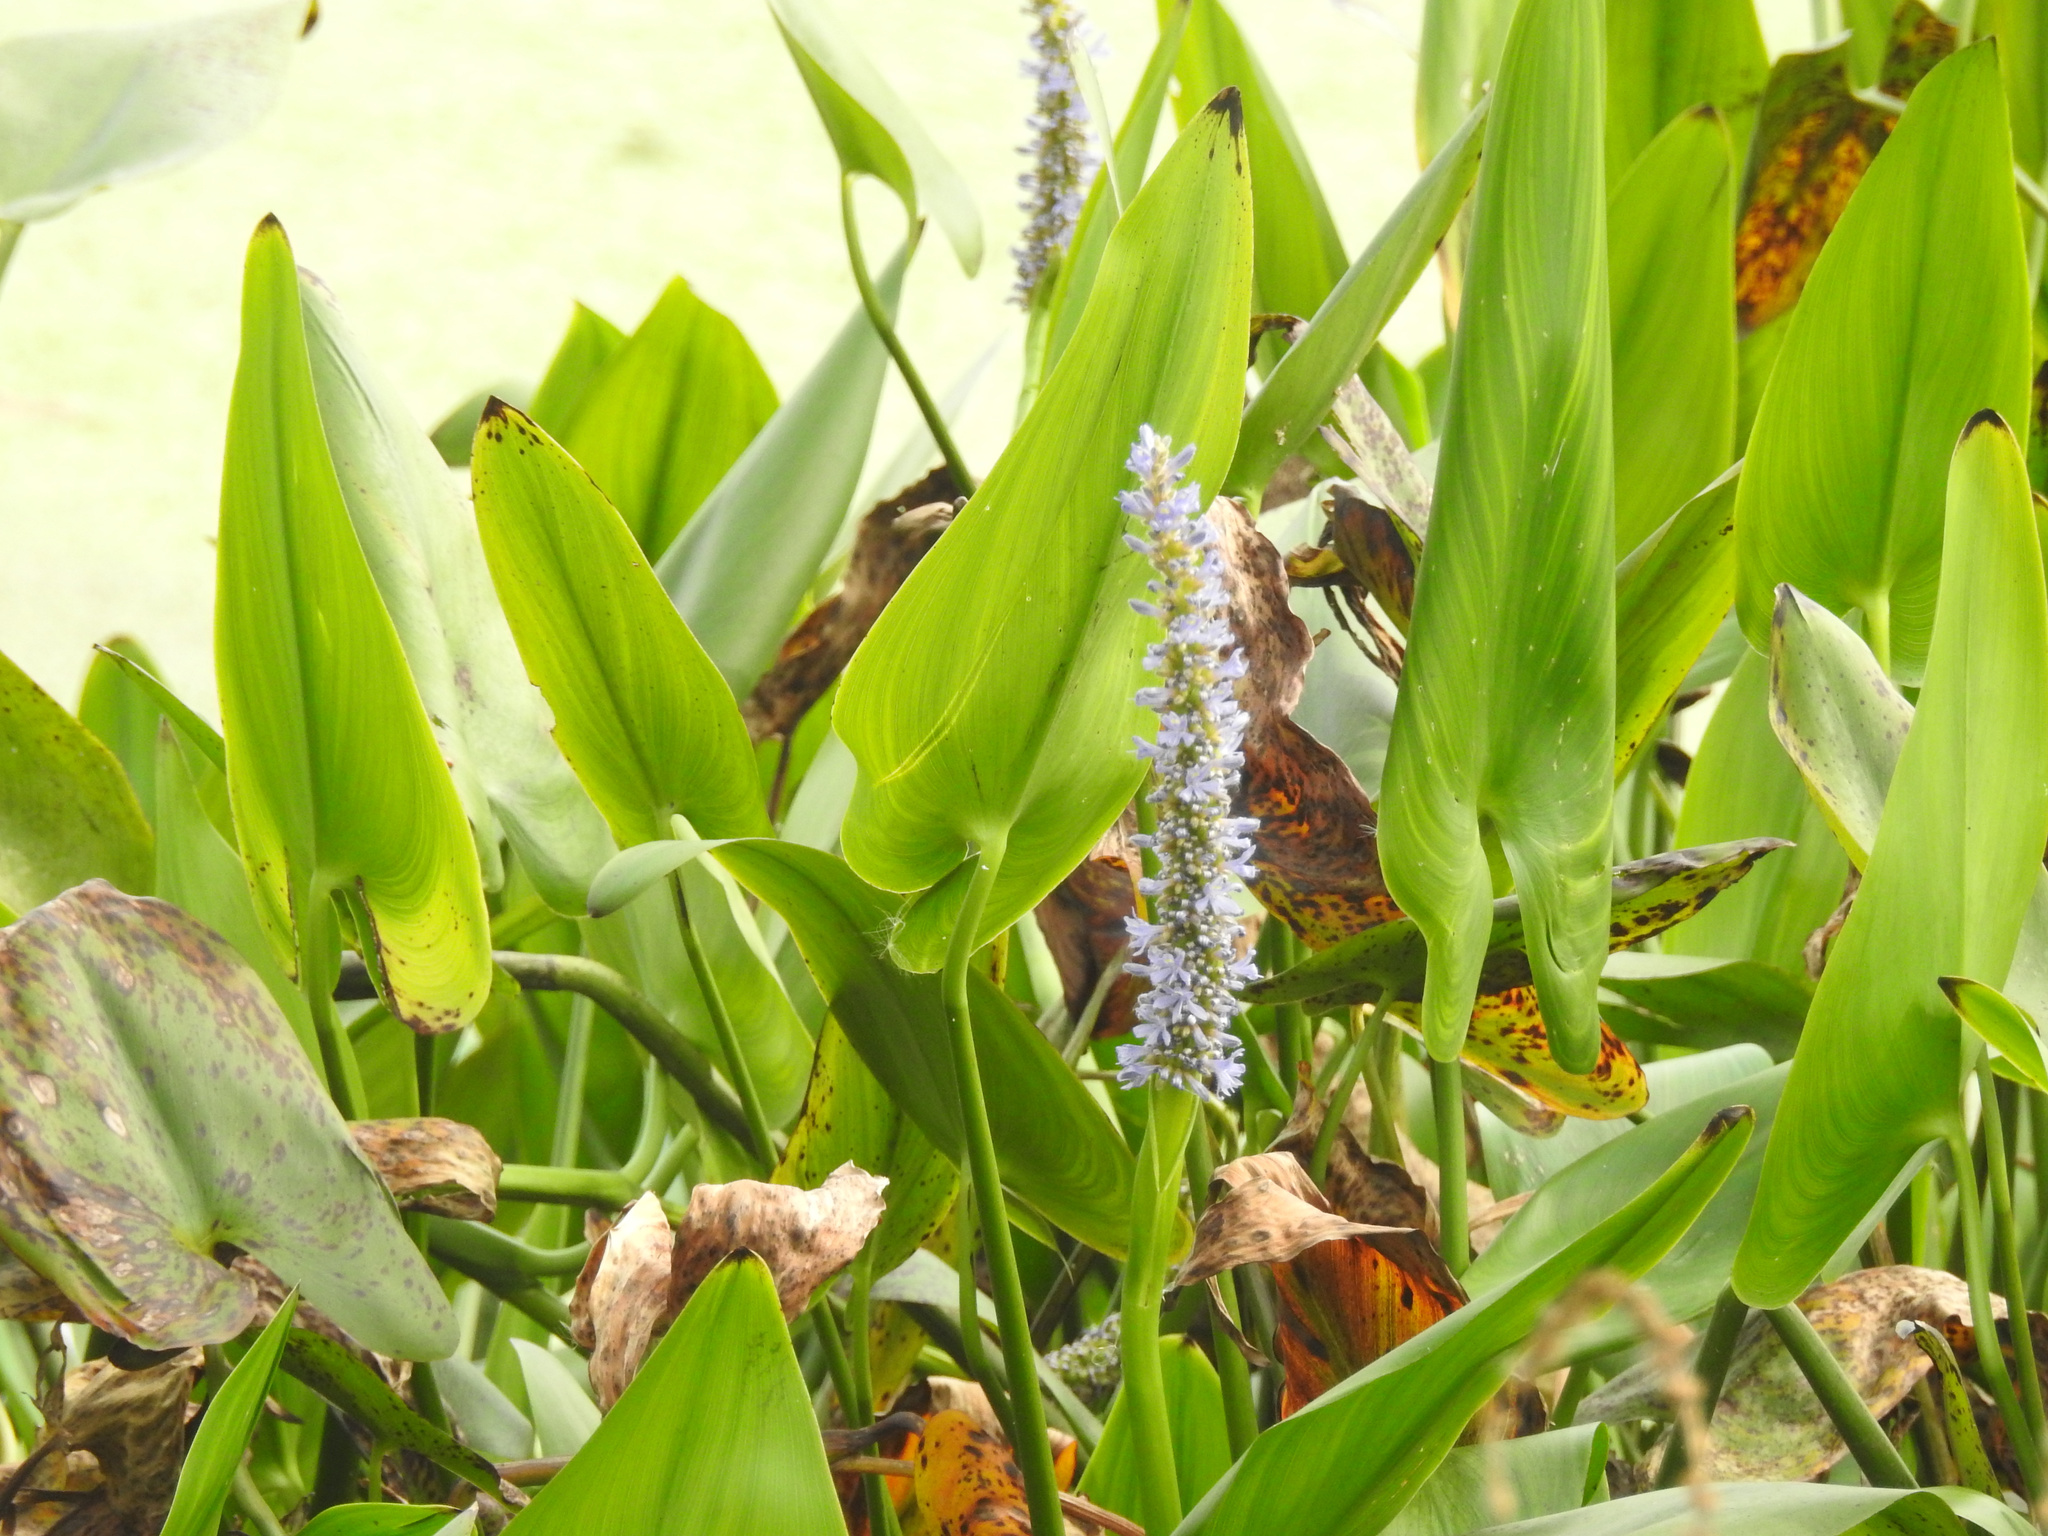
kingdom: Plantae
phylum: Tracheophyta
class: Liliopsida
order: Commelinales
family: Pontederiaceae
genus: Pontederia
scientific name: Pontederia cordata
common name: Pickerelweed
